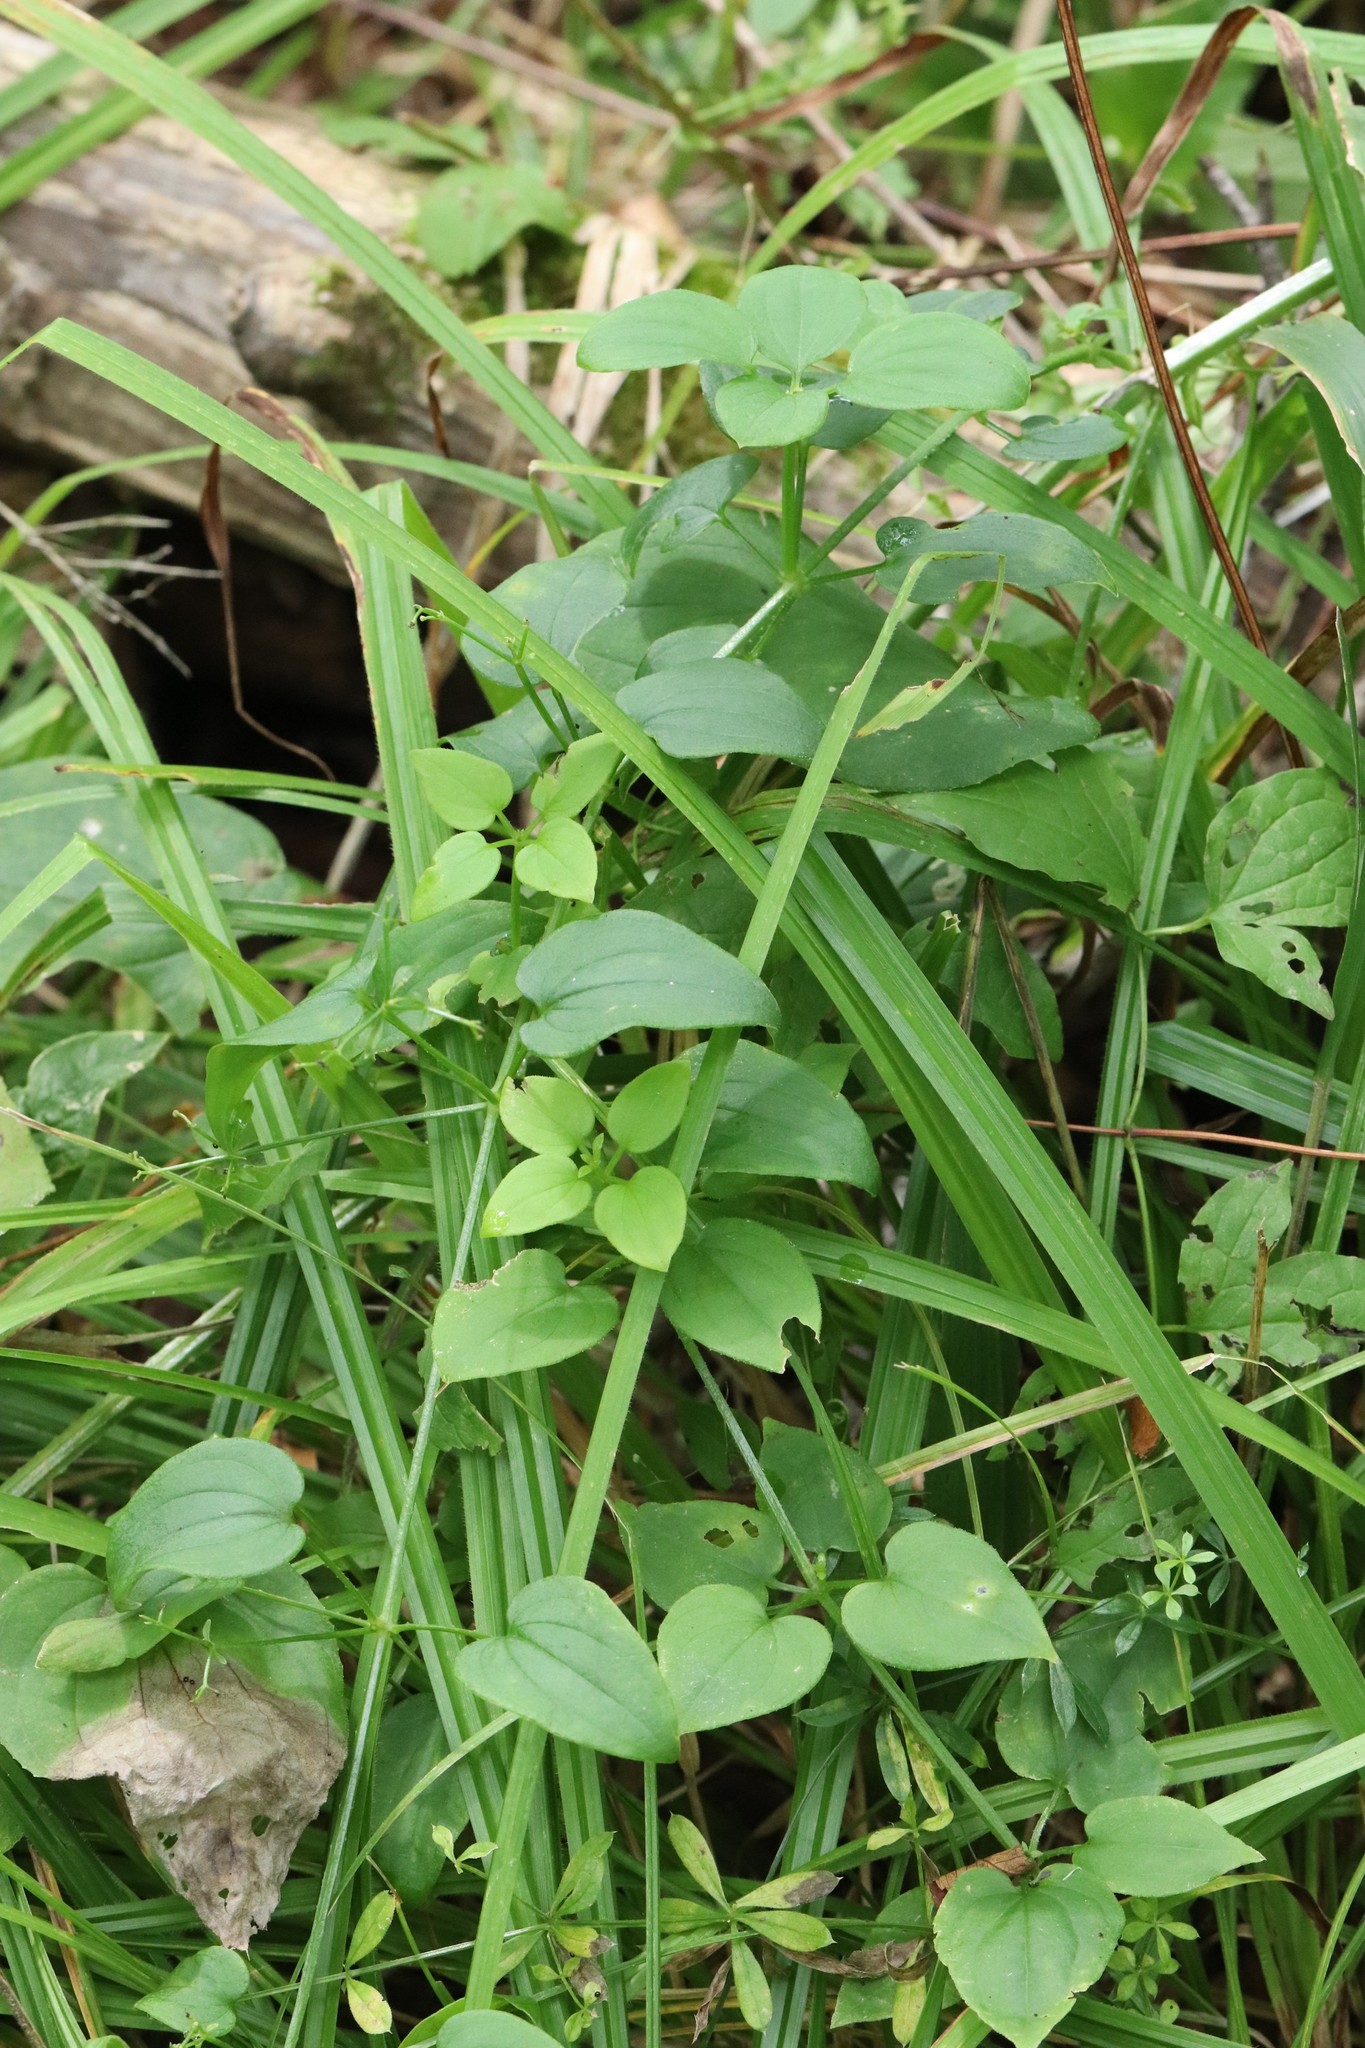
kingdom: Plantae
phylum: Tracheophyta
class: Magnoliopsida
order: Gentianales
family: Rubiaceae
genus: Rubia
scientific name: Rubia cordifolia
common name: Indian madder
